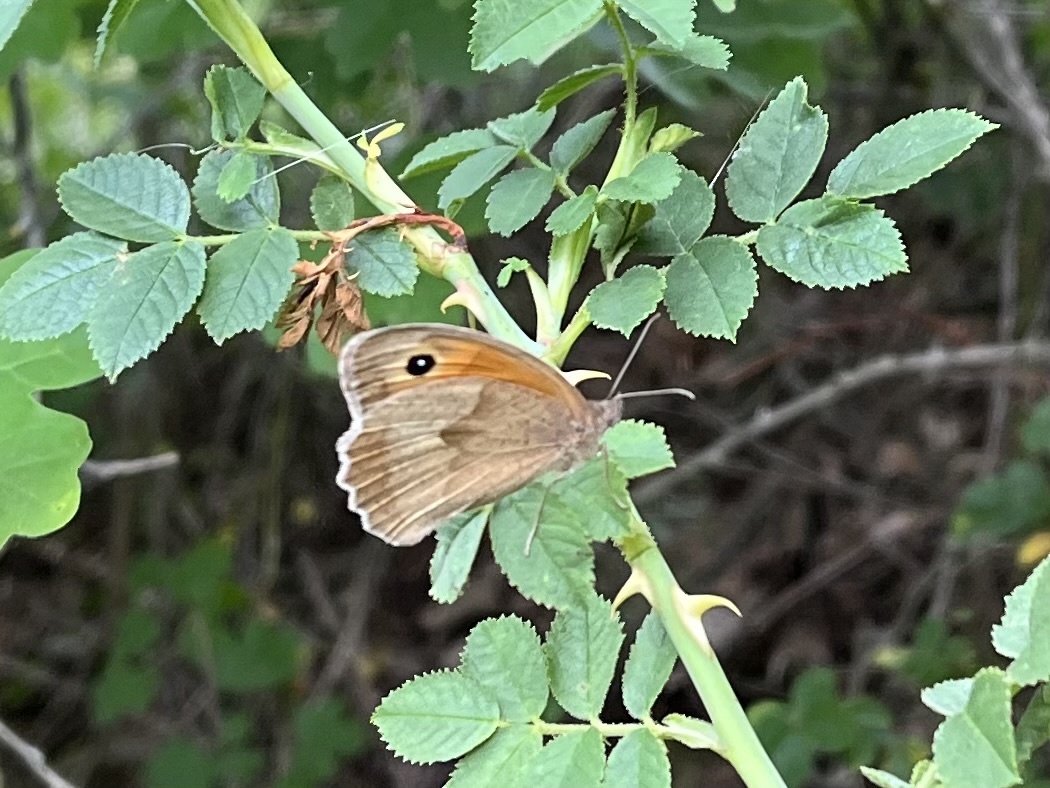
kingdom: Animalia
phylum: Arthropoda
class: Insecta
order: Lepidoptera
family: Nymphalidae
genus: Maniola
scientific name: Maniola jurtina
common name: Meadow brown
